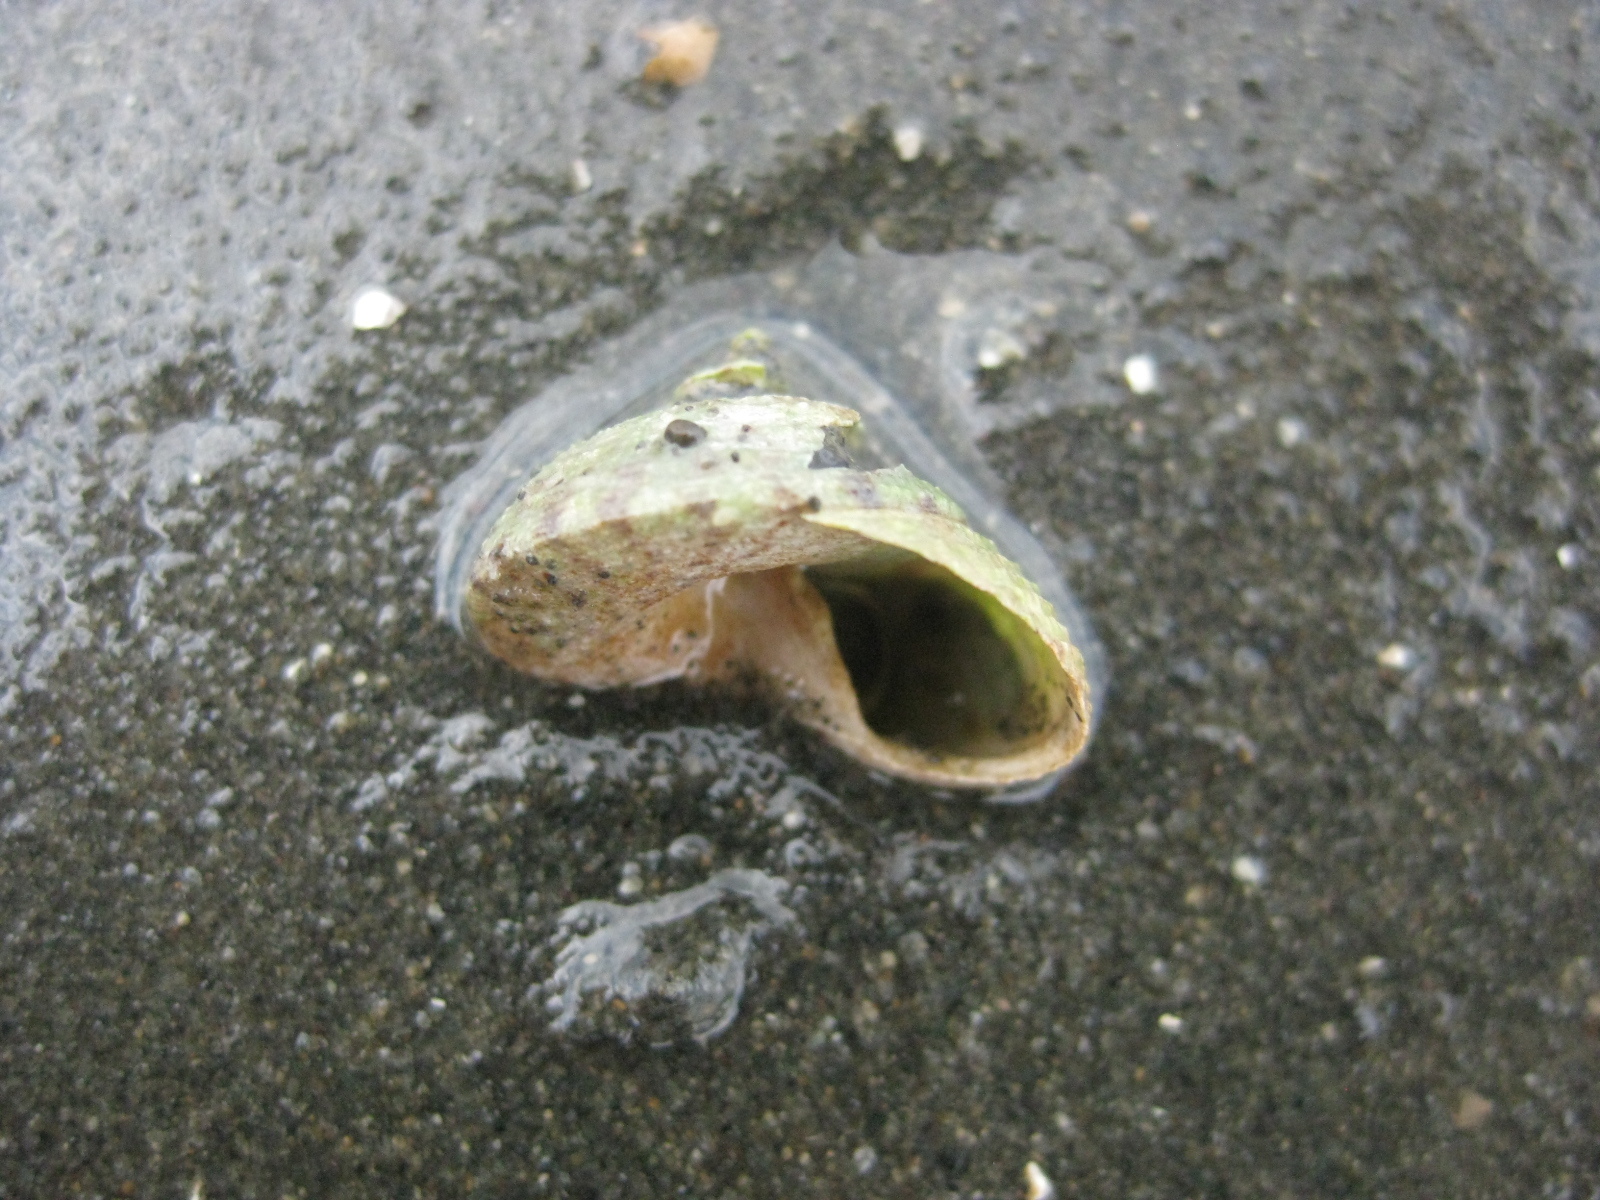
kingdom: Animalia
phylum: Mollusca
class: Gastropoda
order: Trochida
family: Trochidae
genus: Coelotrochus
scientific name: Coelotrochus tiaratus
